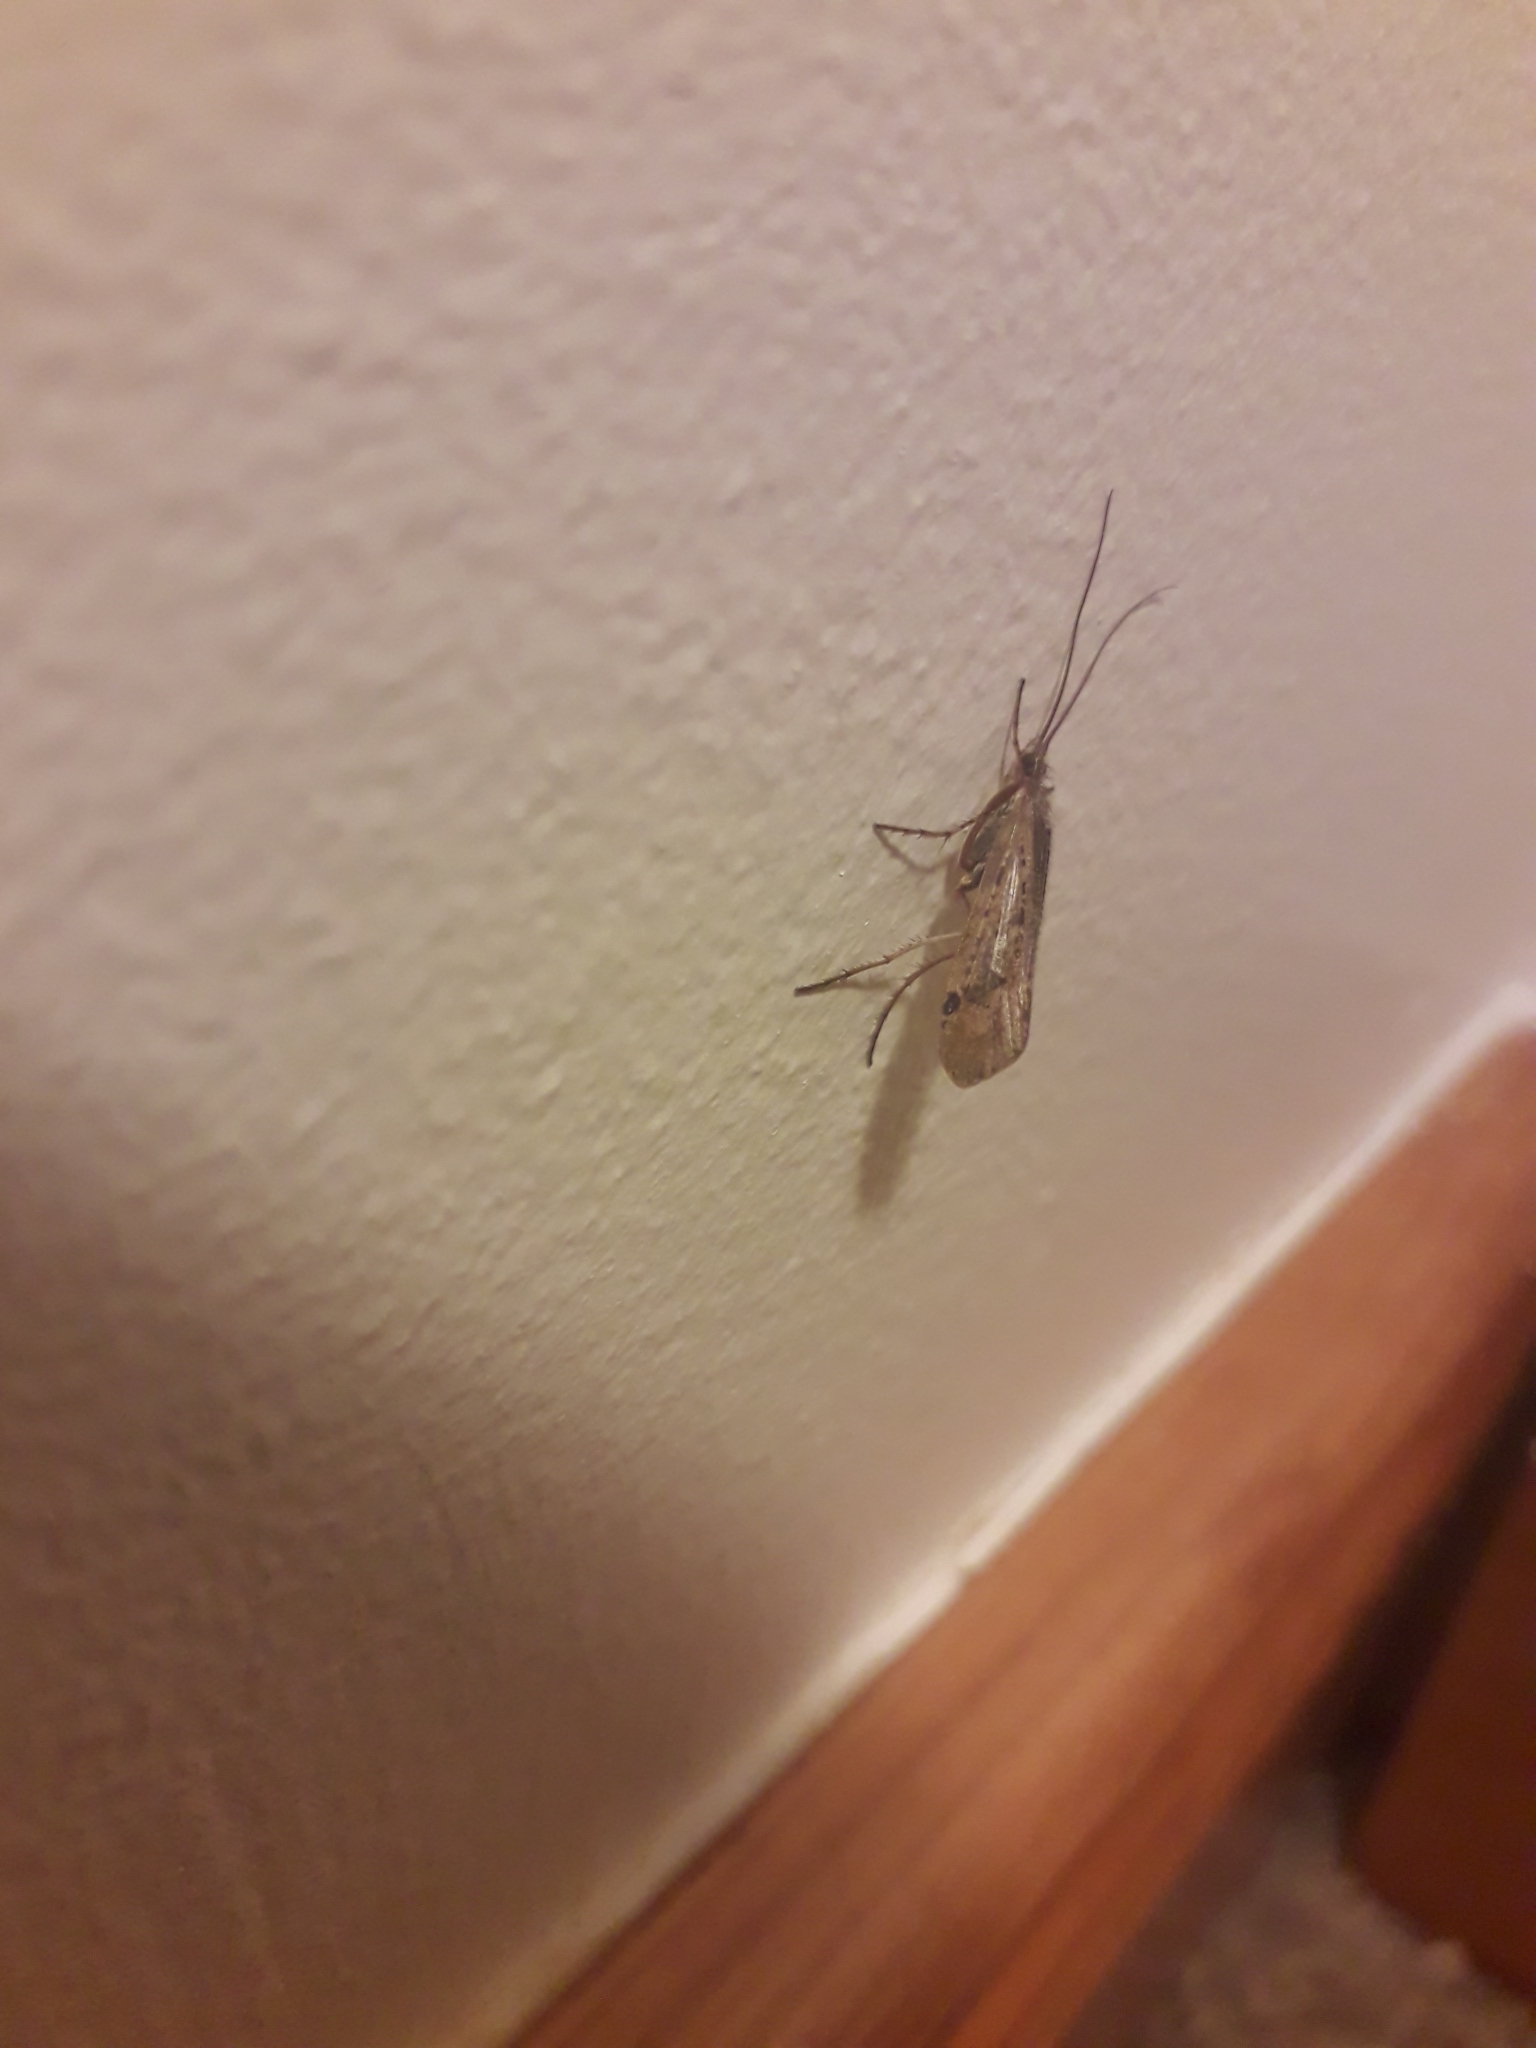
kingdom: Animalia
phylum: Arthropoda
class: Insecta
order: Trichoptera
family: Limnephilidae
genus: Limnephilus
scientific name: Limnephilus affinis
